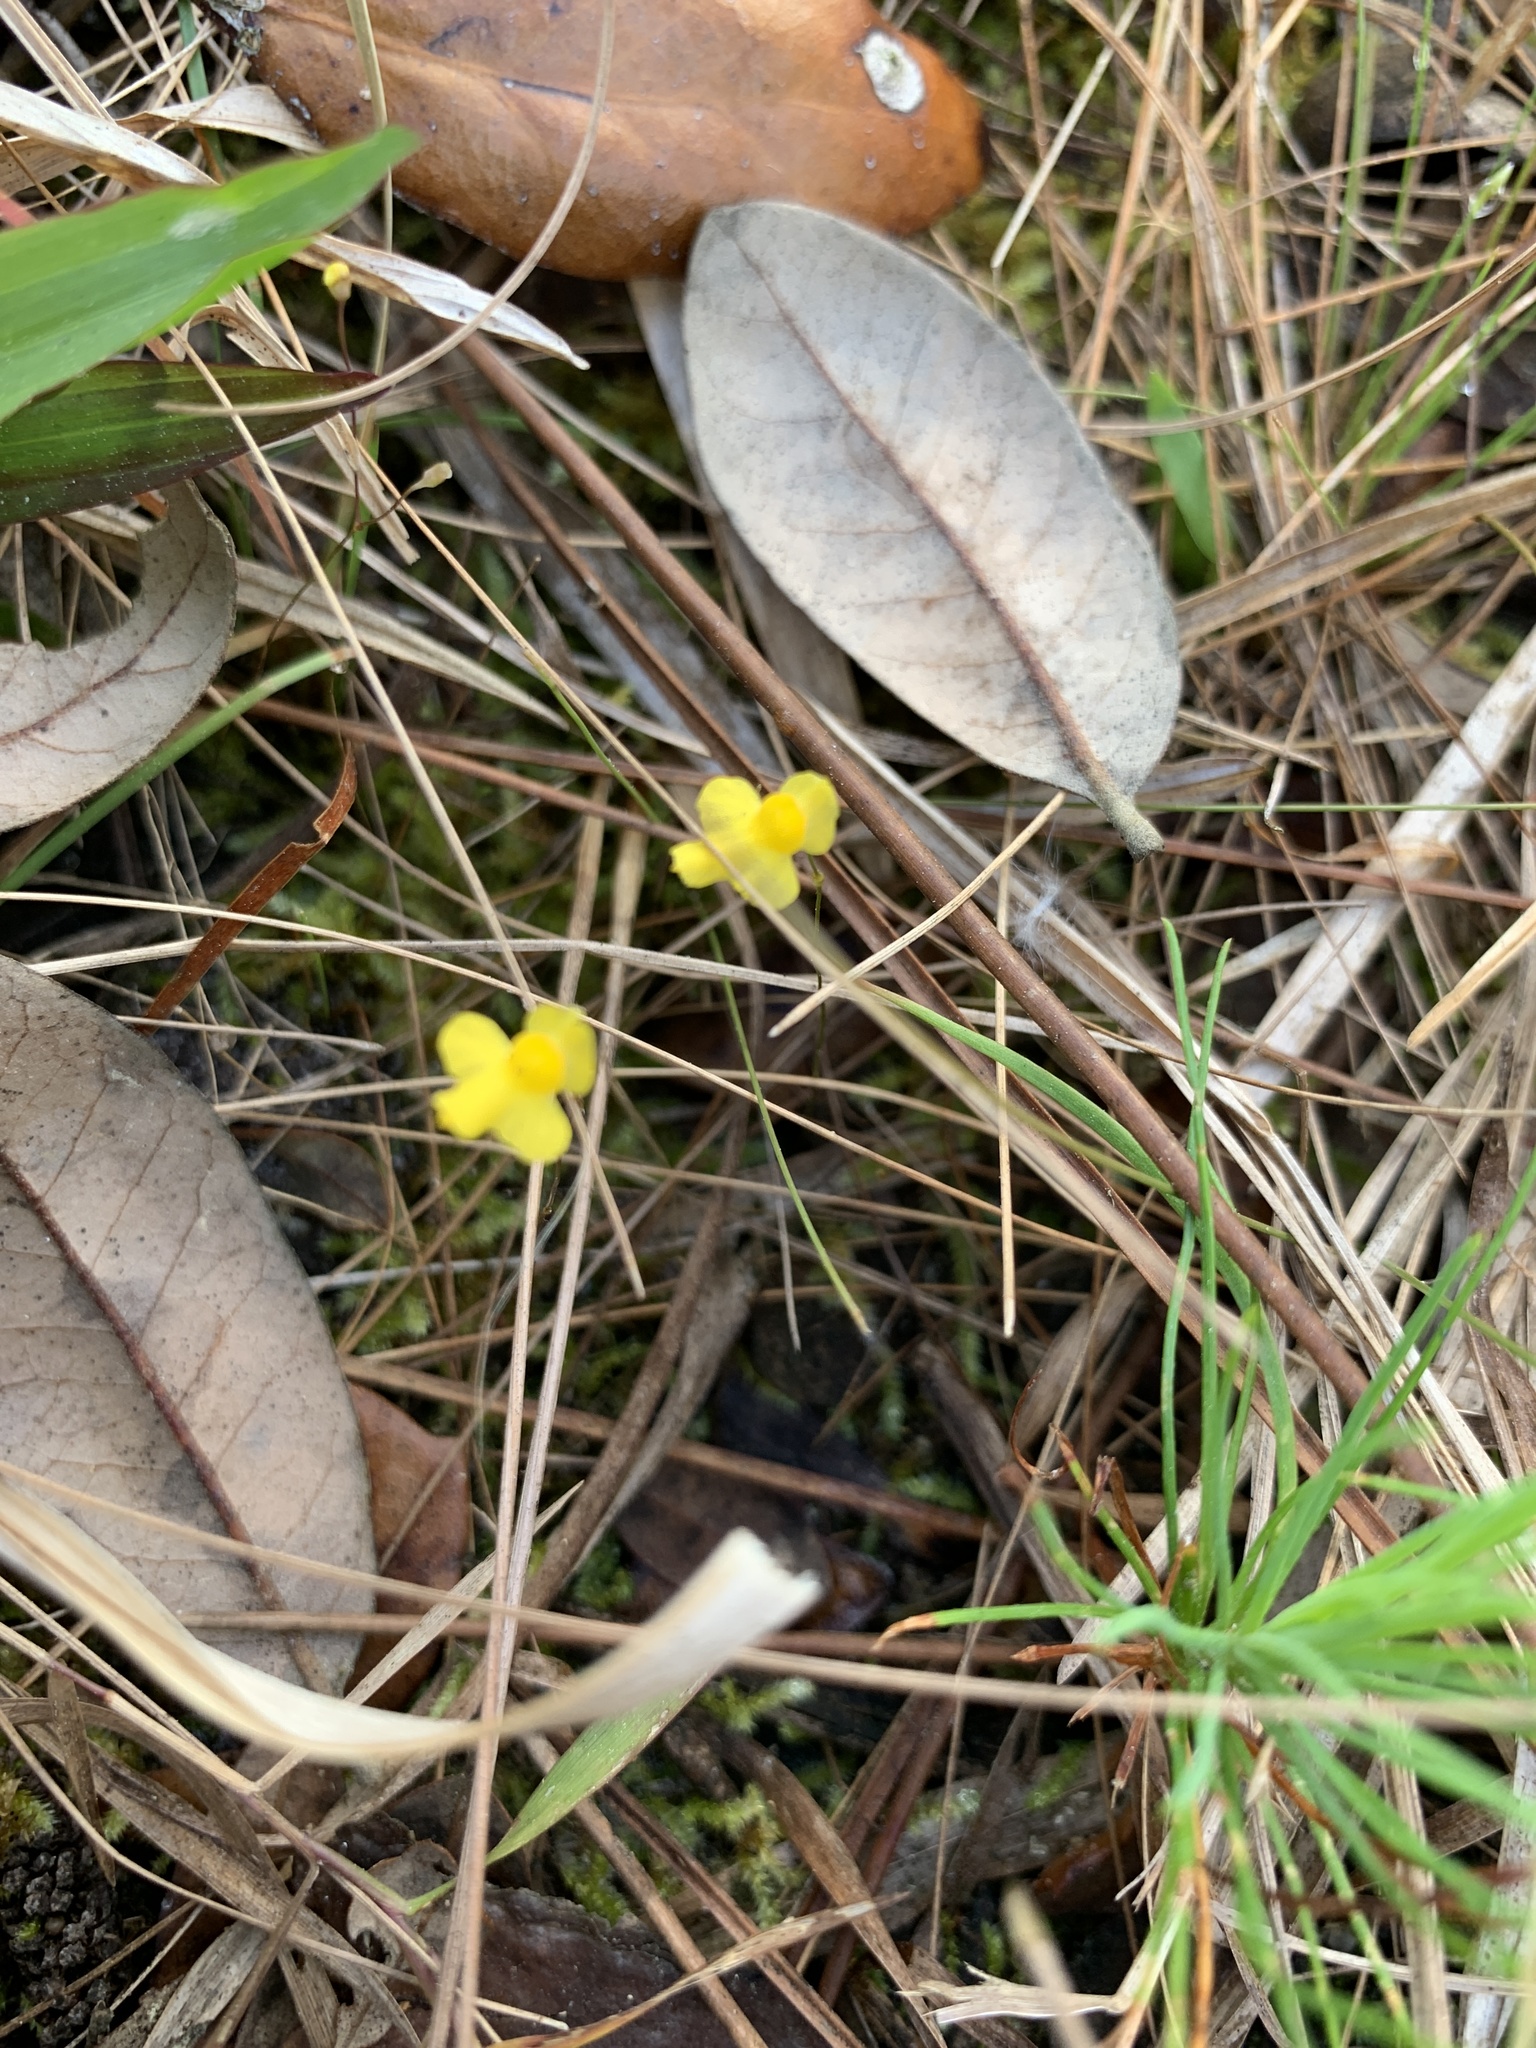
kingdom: Plantae
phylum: Tracheophyta
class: Magnoliopsida
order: Lamiales
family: Lentibulariaceae
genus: Utricularia
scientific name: Utricularia subulata
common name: Tiny bladderwort
